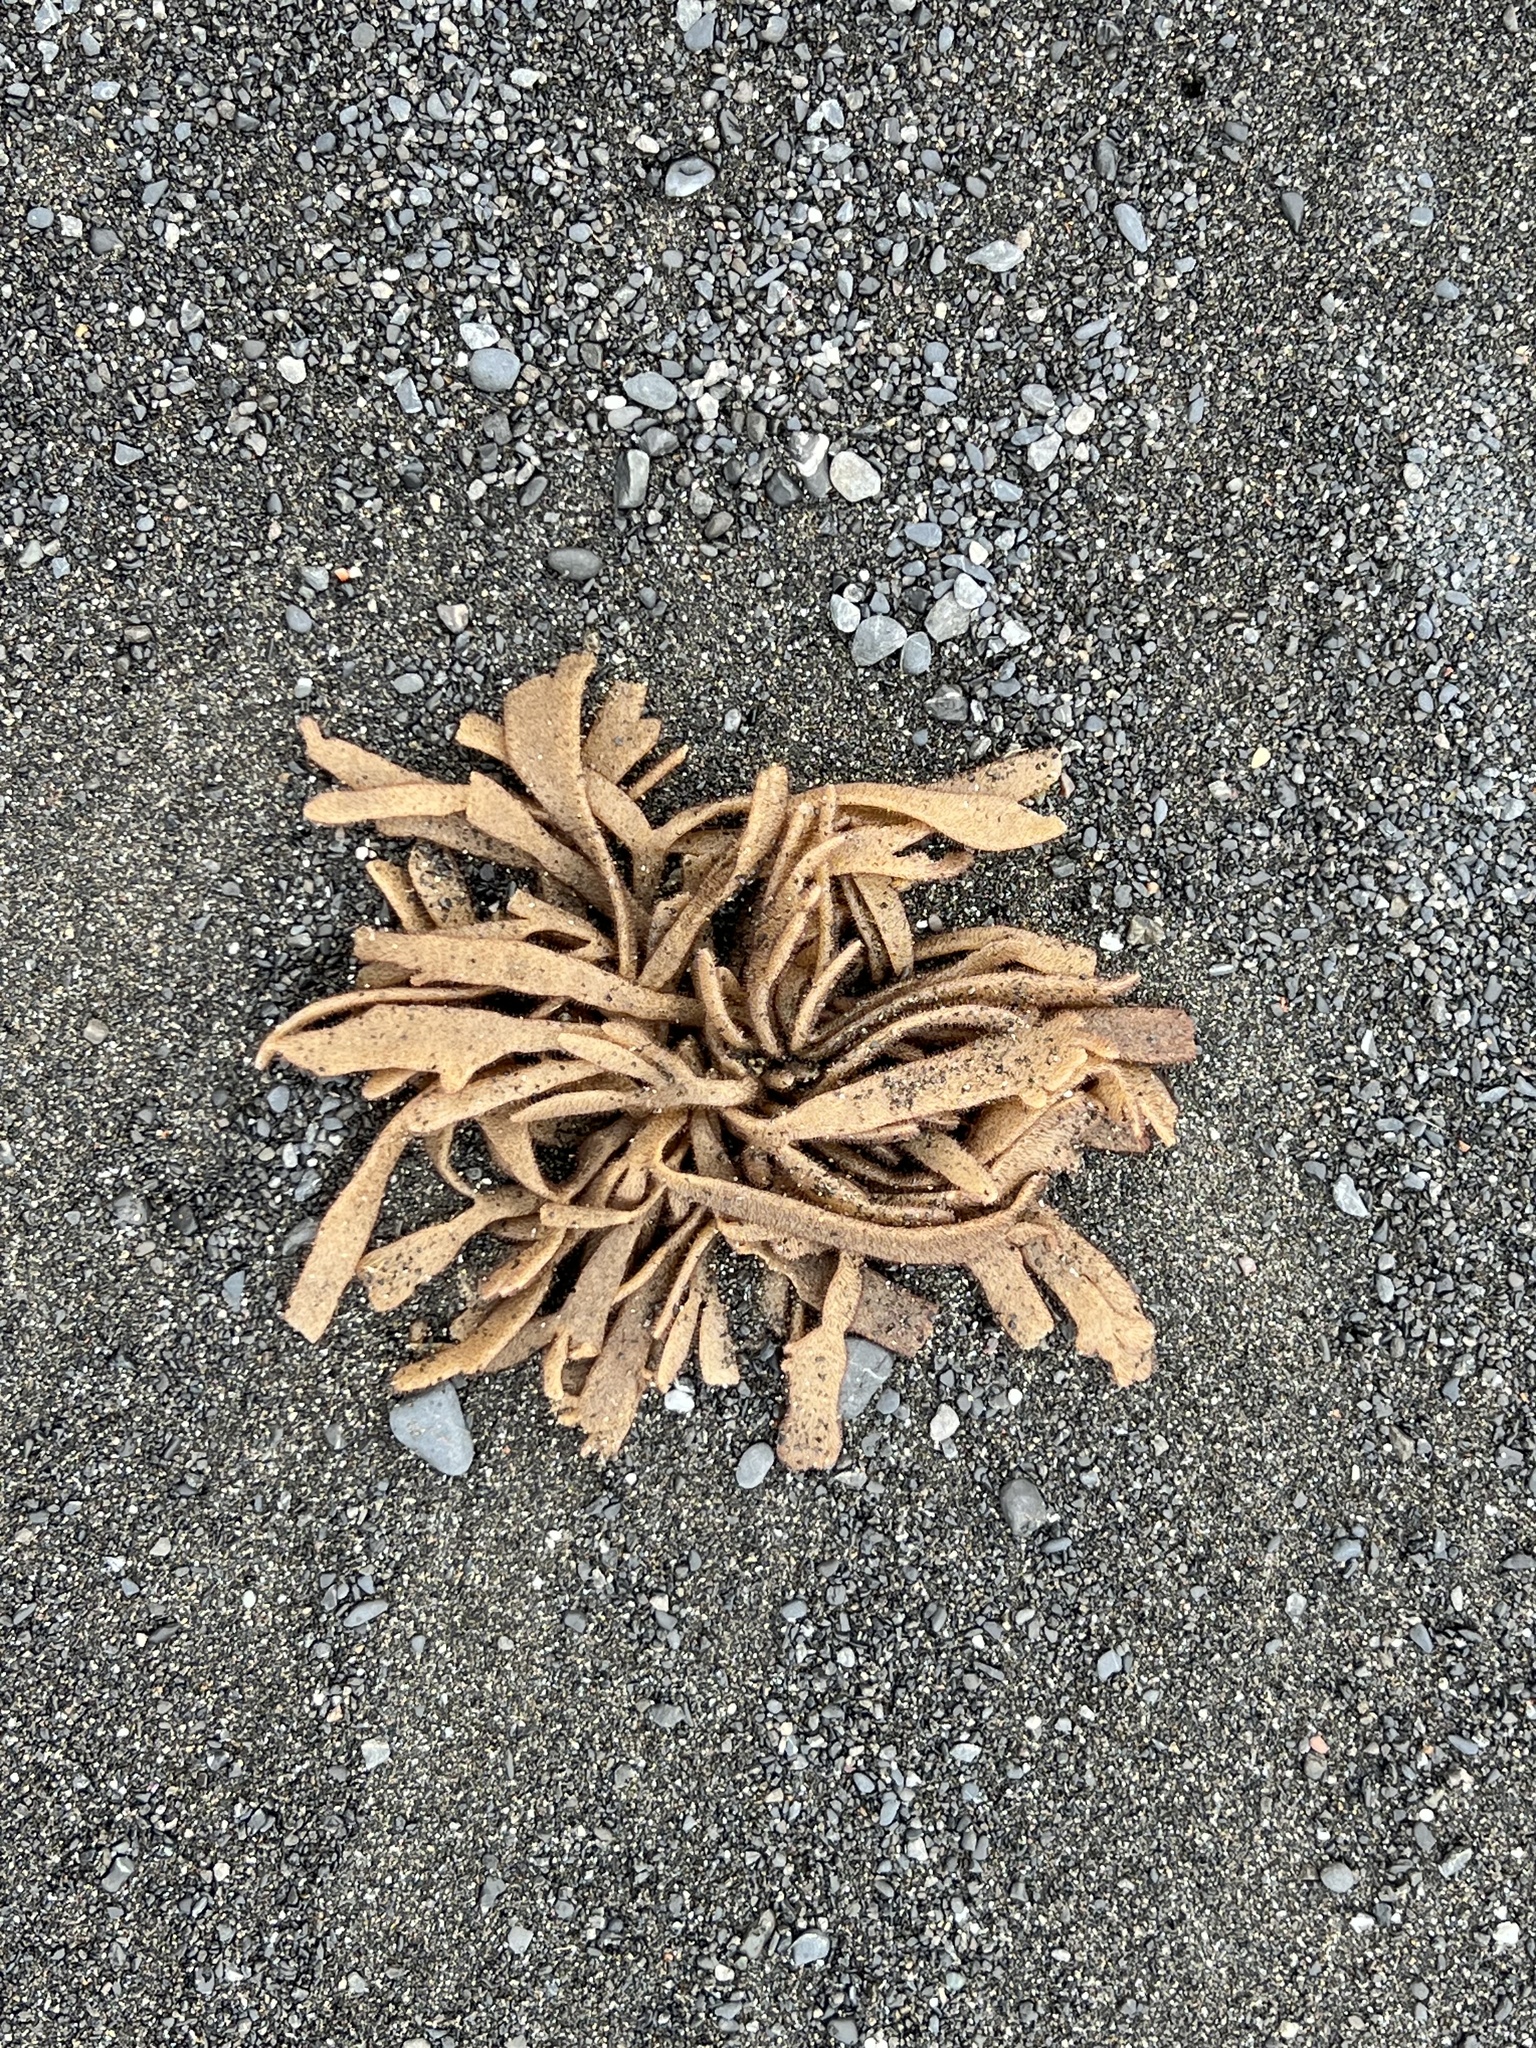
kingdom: Animalia
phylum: Bryozoa
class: Gymnolaemata
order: Ctenostomatida
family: Flustrellidridae
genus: Flustrellidra
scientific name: Flustrellidra corniculata
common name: Spiny leather bryozoan
